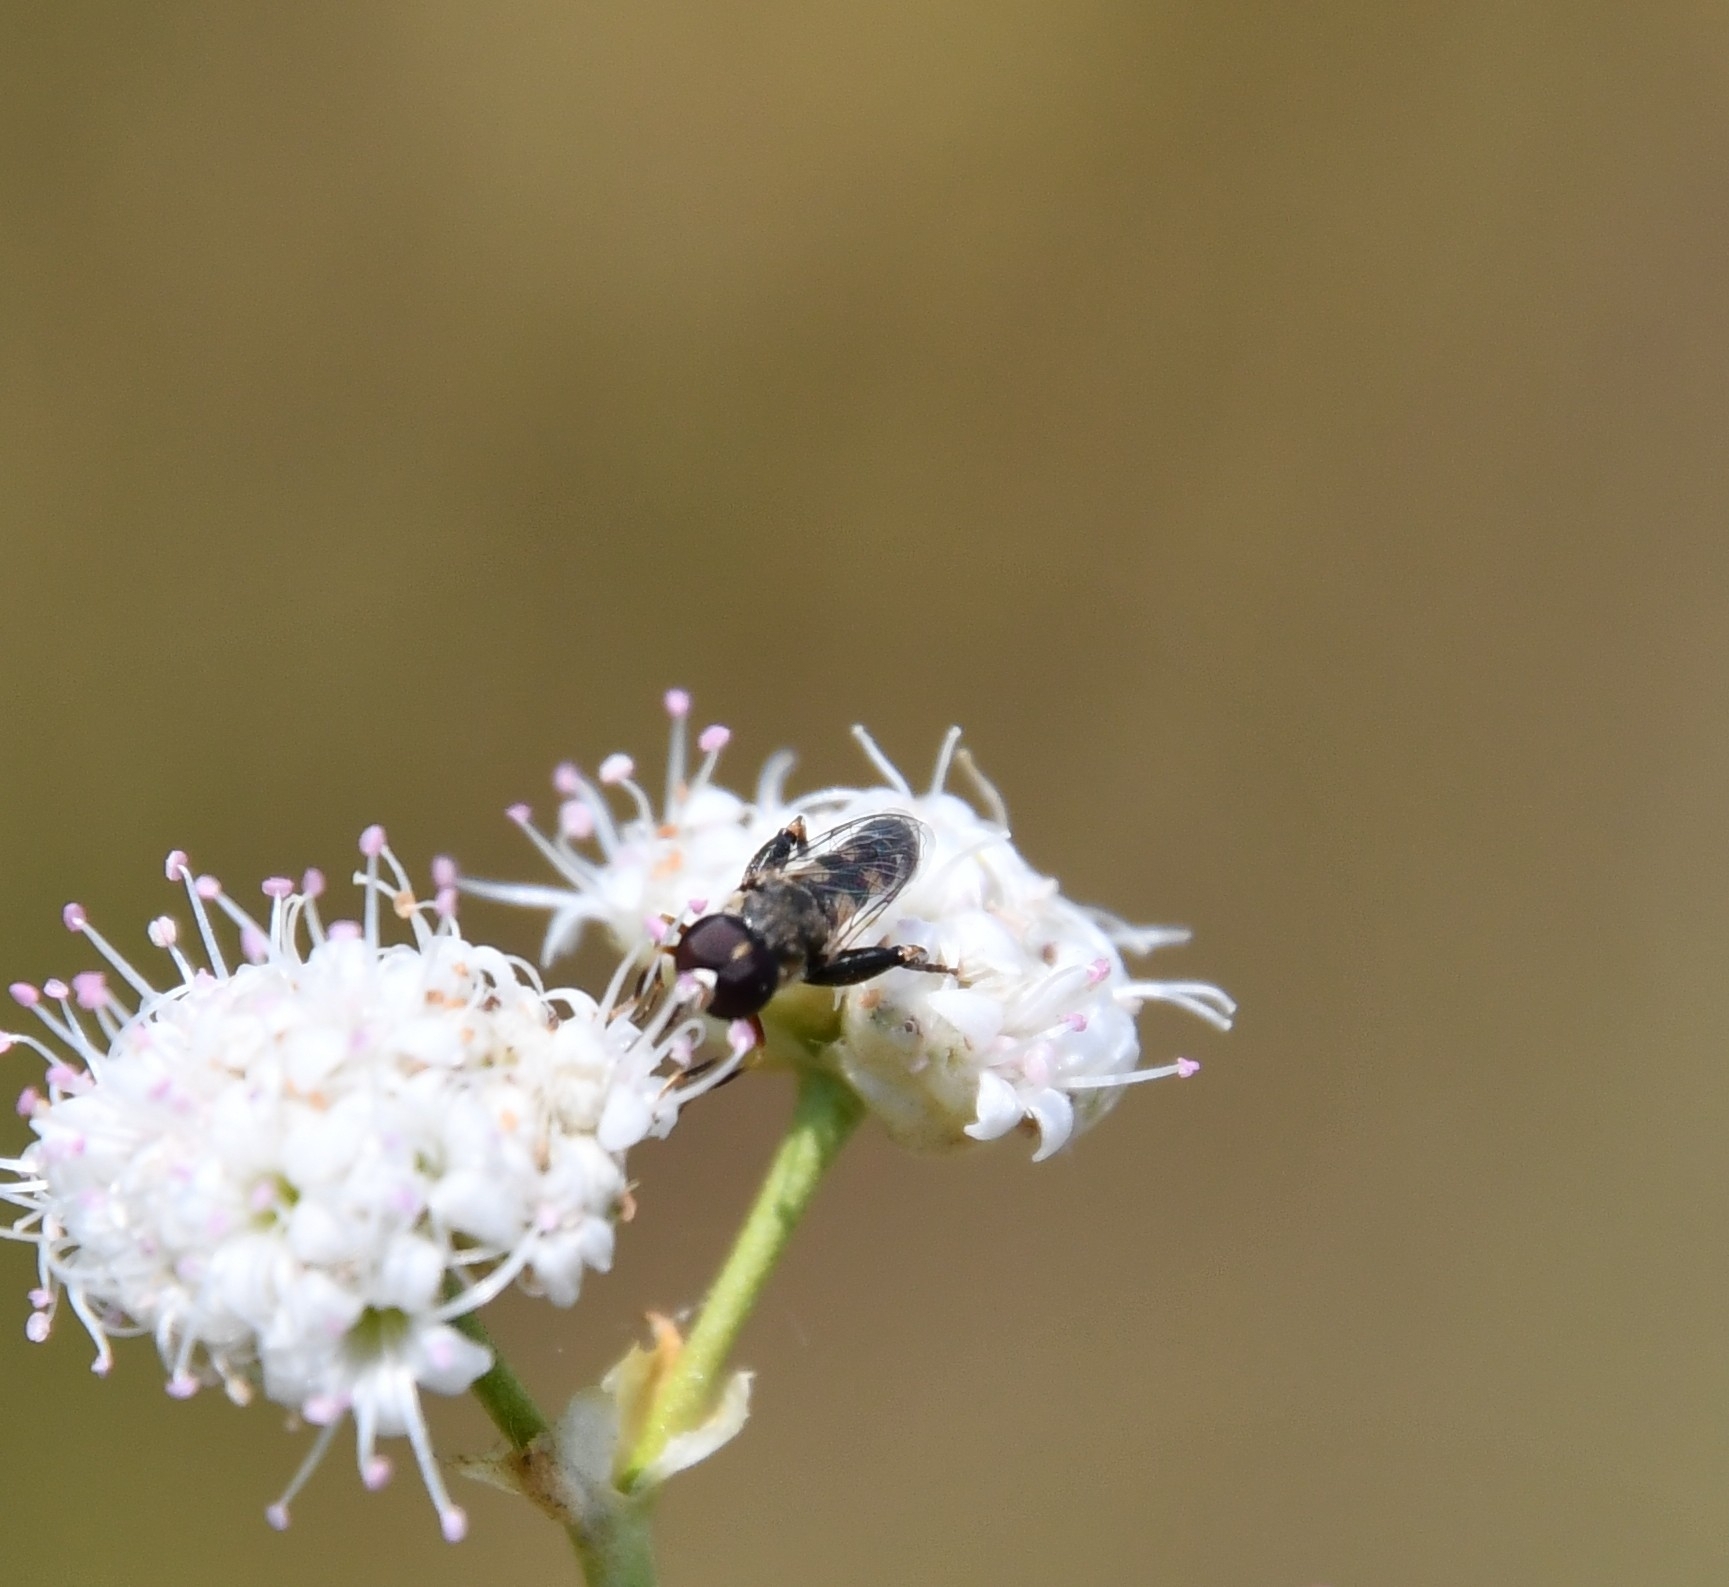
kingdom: Animalia
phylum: Arthropoda
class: Insecta
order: Diptera
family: Syrphidae
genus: Syritta
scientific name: Syritta pipiens
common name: Hover fly
